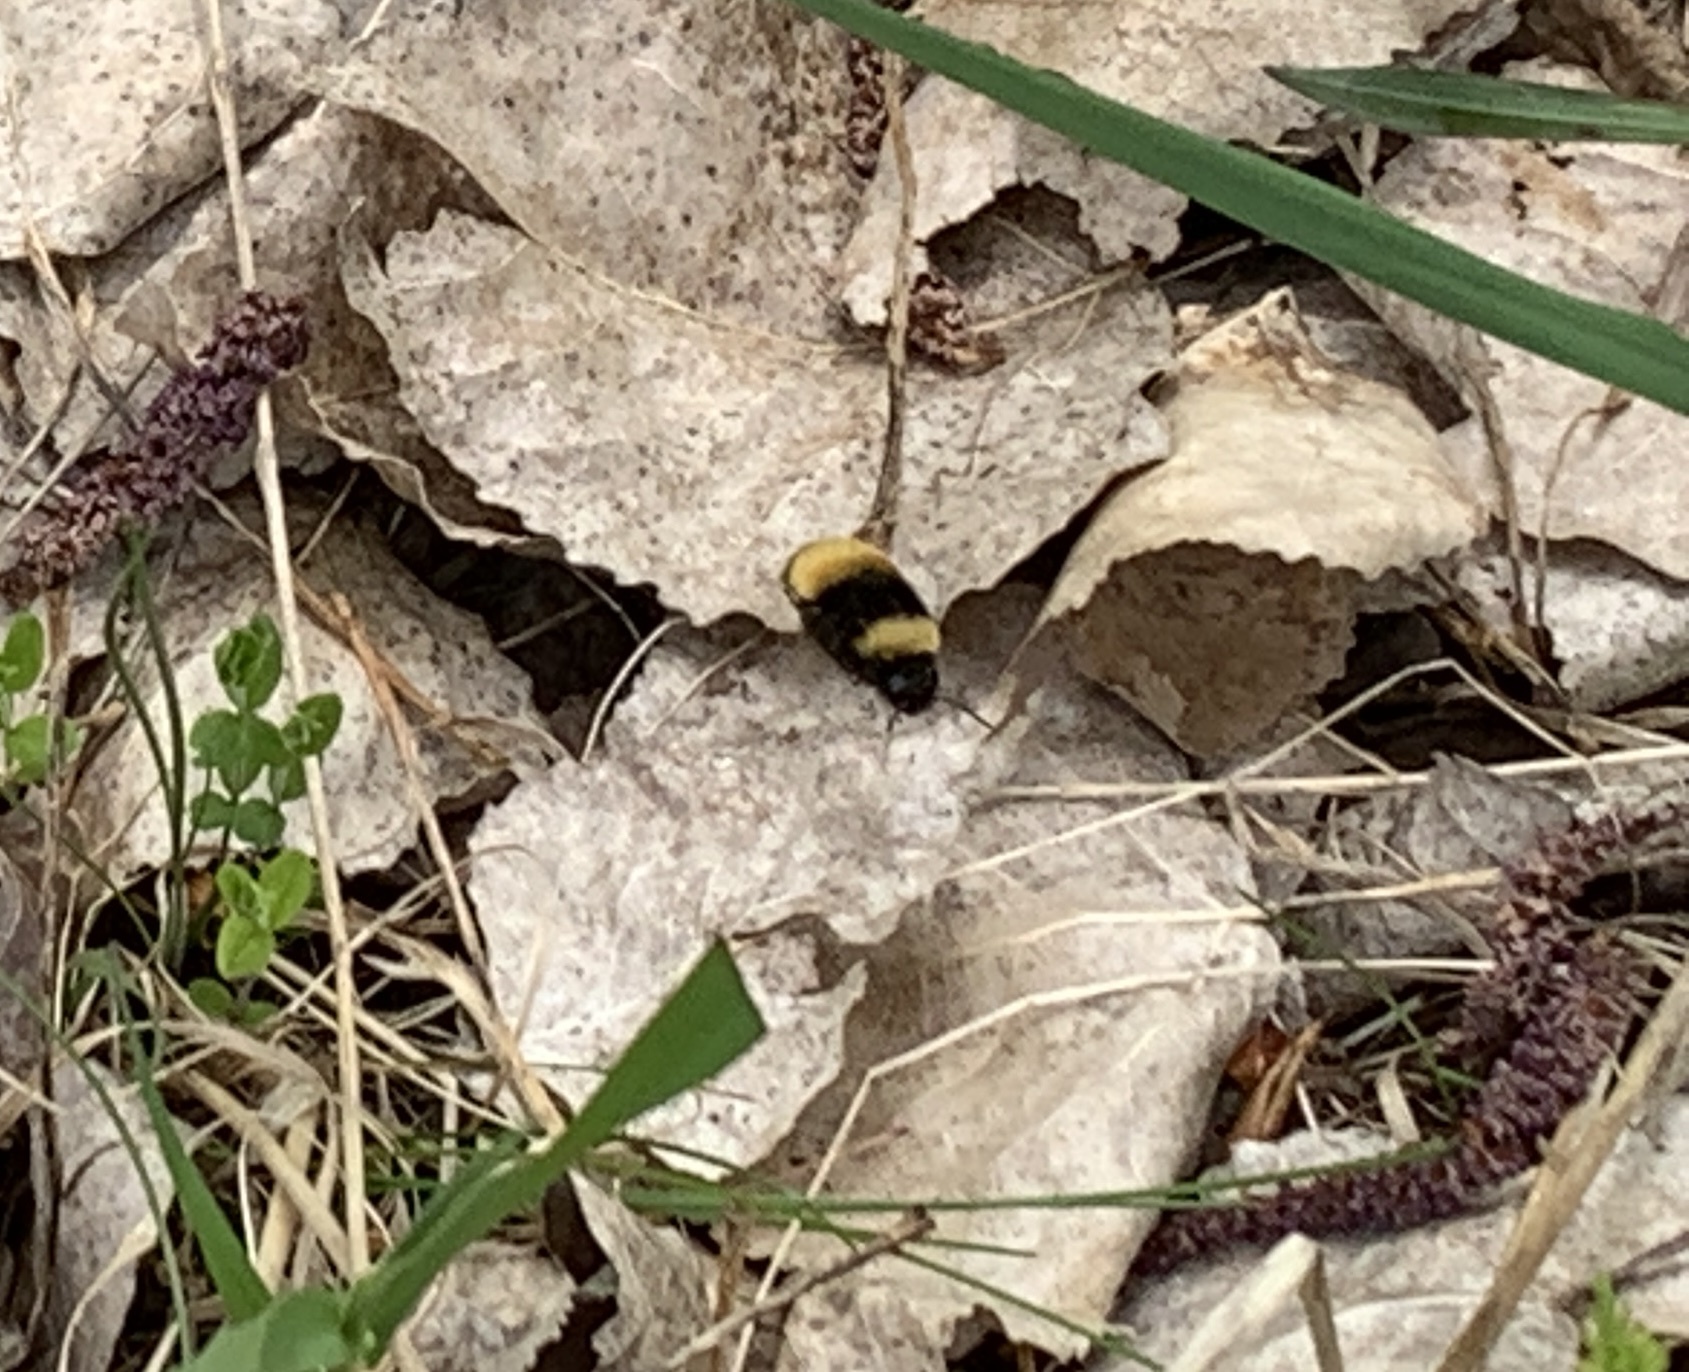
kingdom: Animalia
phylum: Arthropoda
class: Insecta
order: Hymenoptera
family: Apidae
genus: Bombus
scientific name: Bombus terricola
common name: Yellow-banded bumble bee
